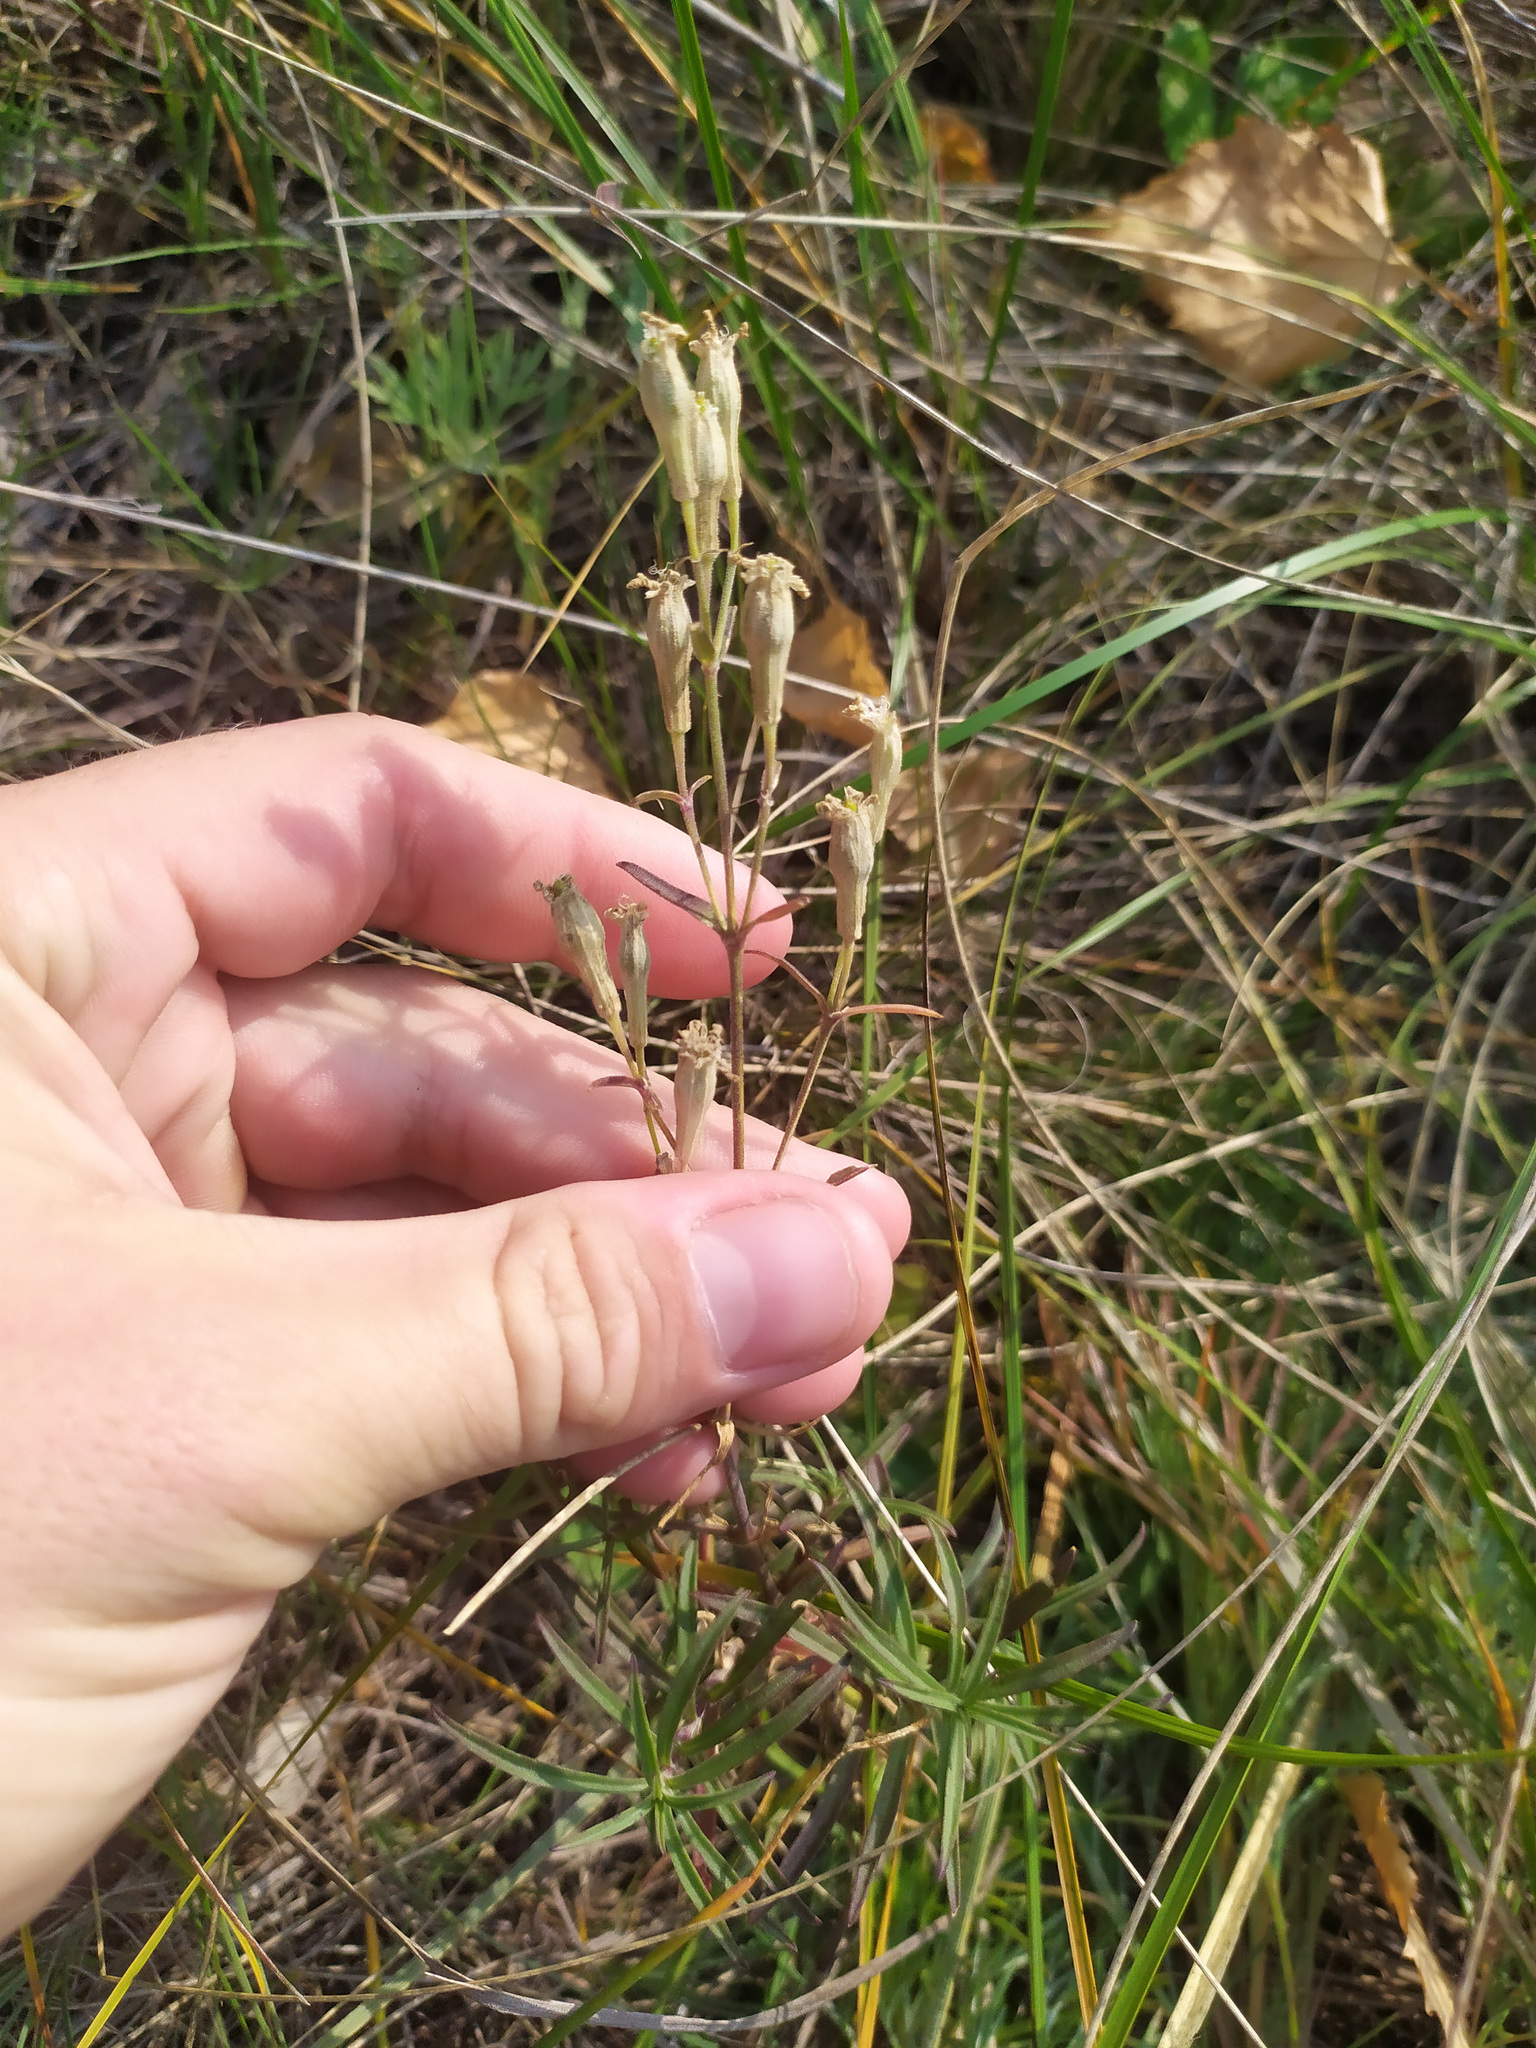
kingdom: Plantae
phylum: Tracheophyta
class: Magnoliopsida
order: Caryophyllales
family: Caryophyllaceae
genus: Silene
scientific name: Silene amoena
